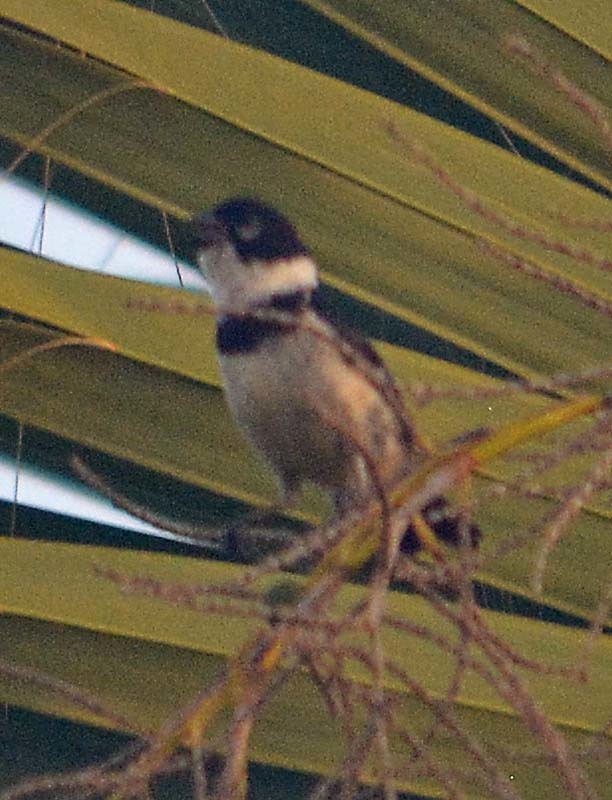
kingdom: Animalia
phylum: Chordata
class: Aves
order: Passeriformes
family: Thraupidae
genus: Sporophila
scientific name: Sporophila morelleti
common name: Morelet's seedeater
